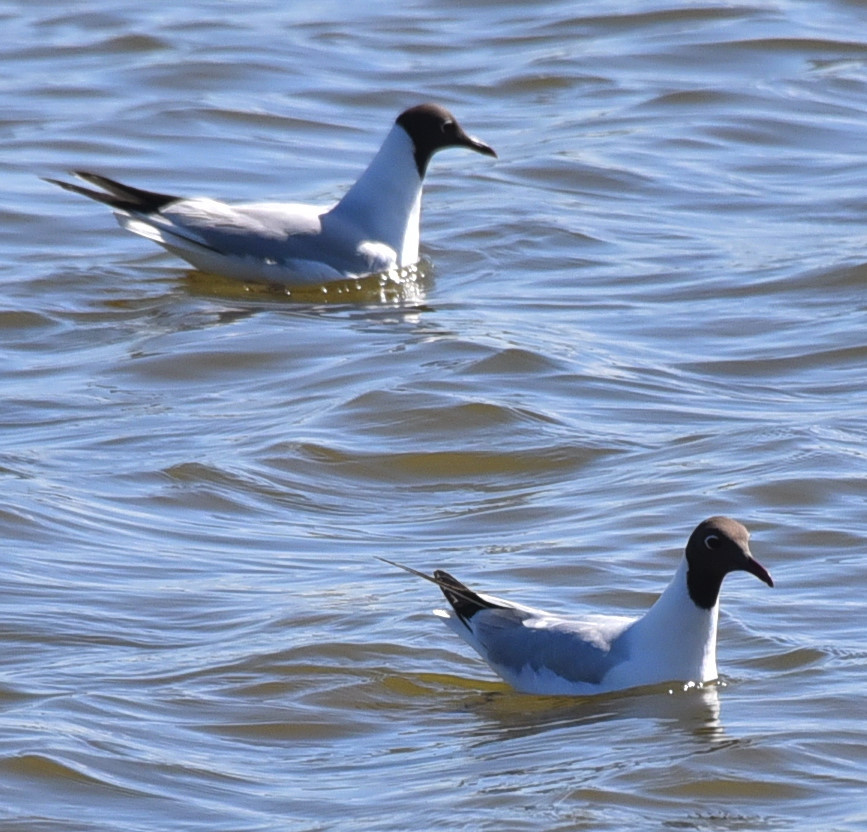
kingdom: Animalia
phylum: Chordata
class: Aves
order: Charadriiformes
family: Laridae
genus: Chroicocephalus
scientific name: Chroicocephalus ridibundus
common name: Black-headed gull
